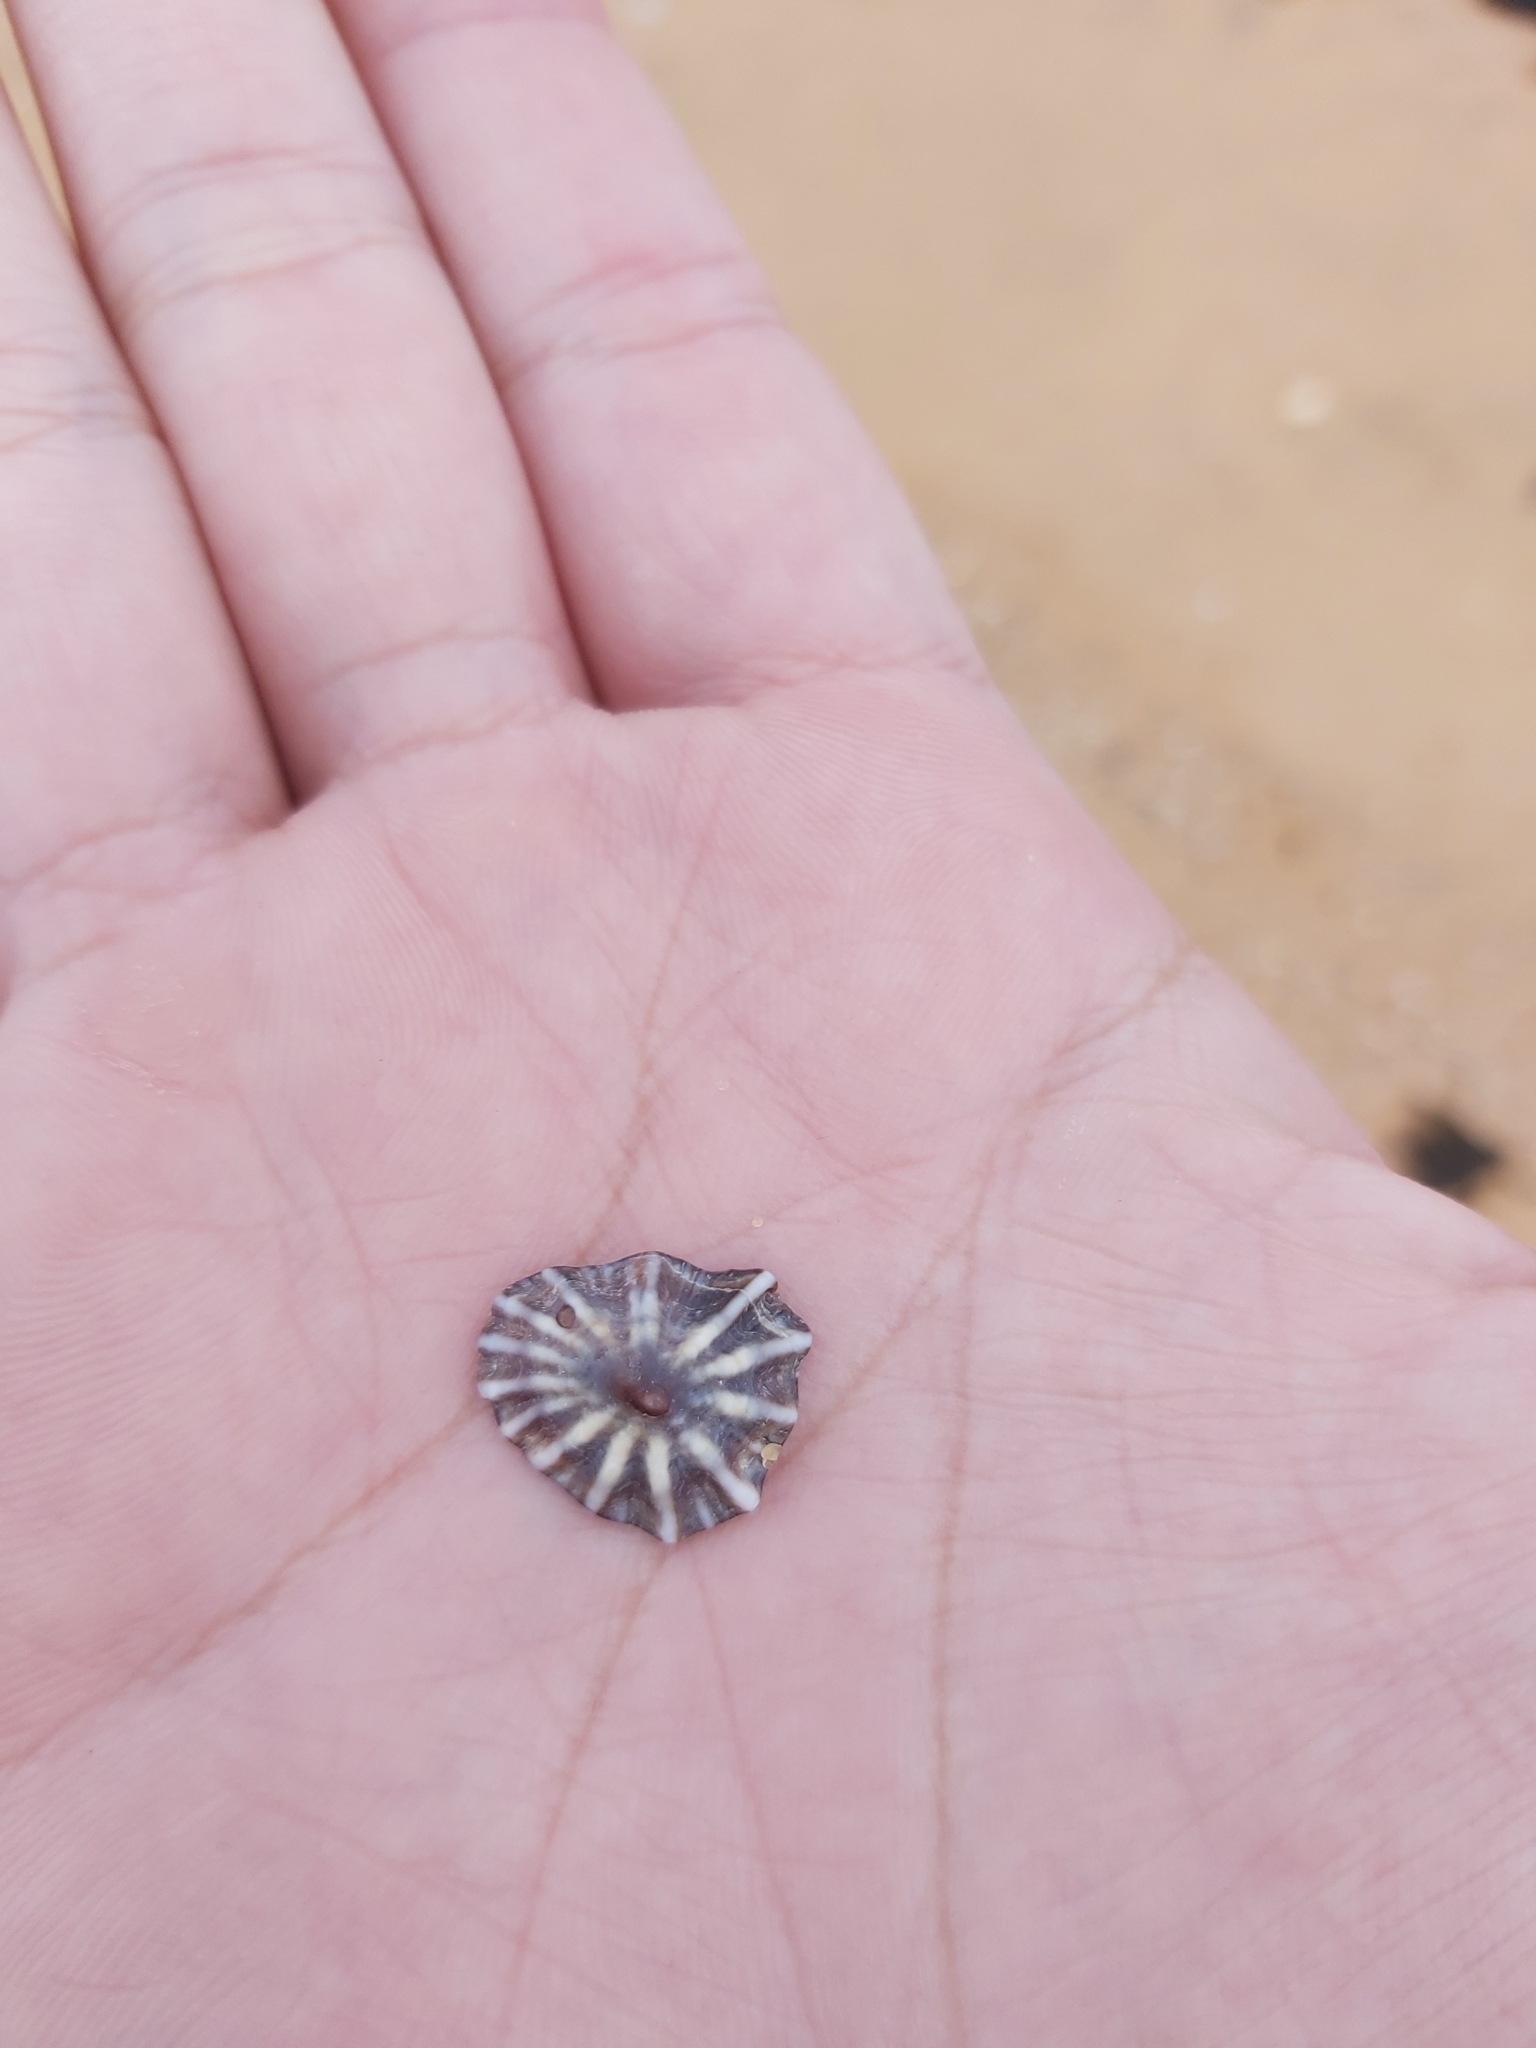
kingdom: Animalia
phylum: Mollusca
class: Gastropoda
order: Siphonariida
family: Siphonariidae
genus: Siphonaria
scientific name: Siphonaria denticulata
